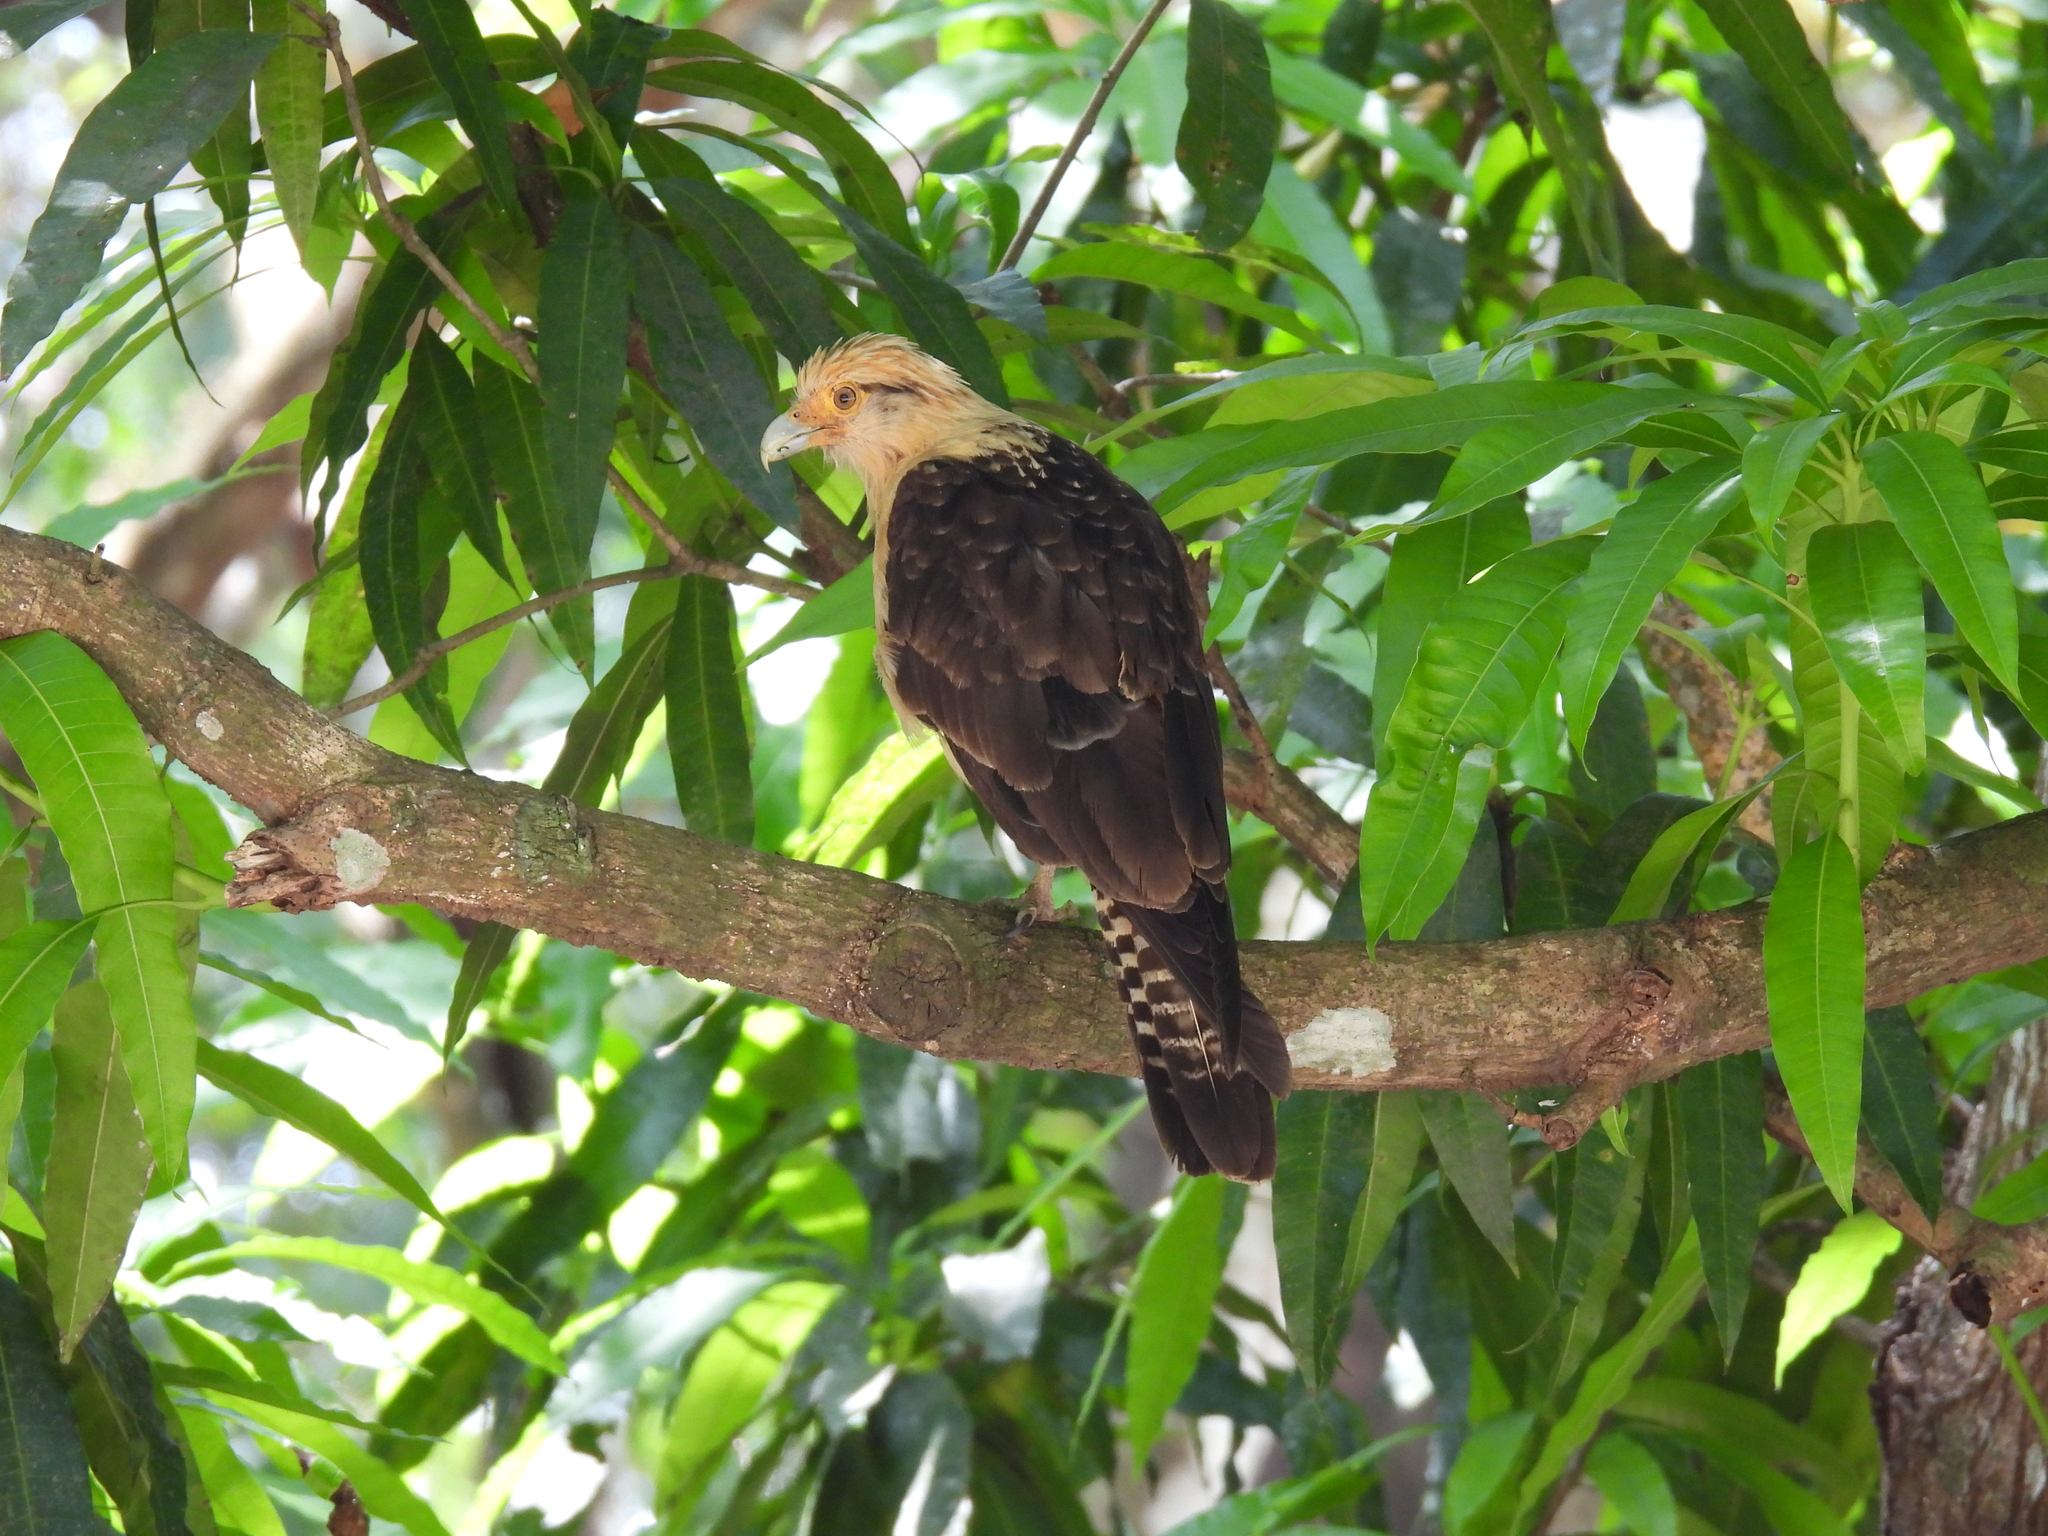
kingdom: Animalia
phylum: Chordata
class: Aves
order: Falconiformes
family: Falconidae
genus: Daptrius
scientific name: Daptrius
